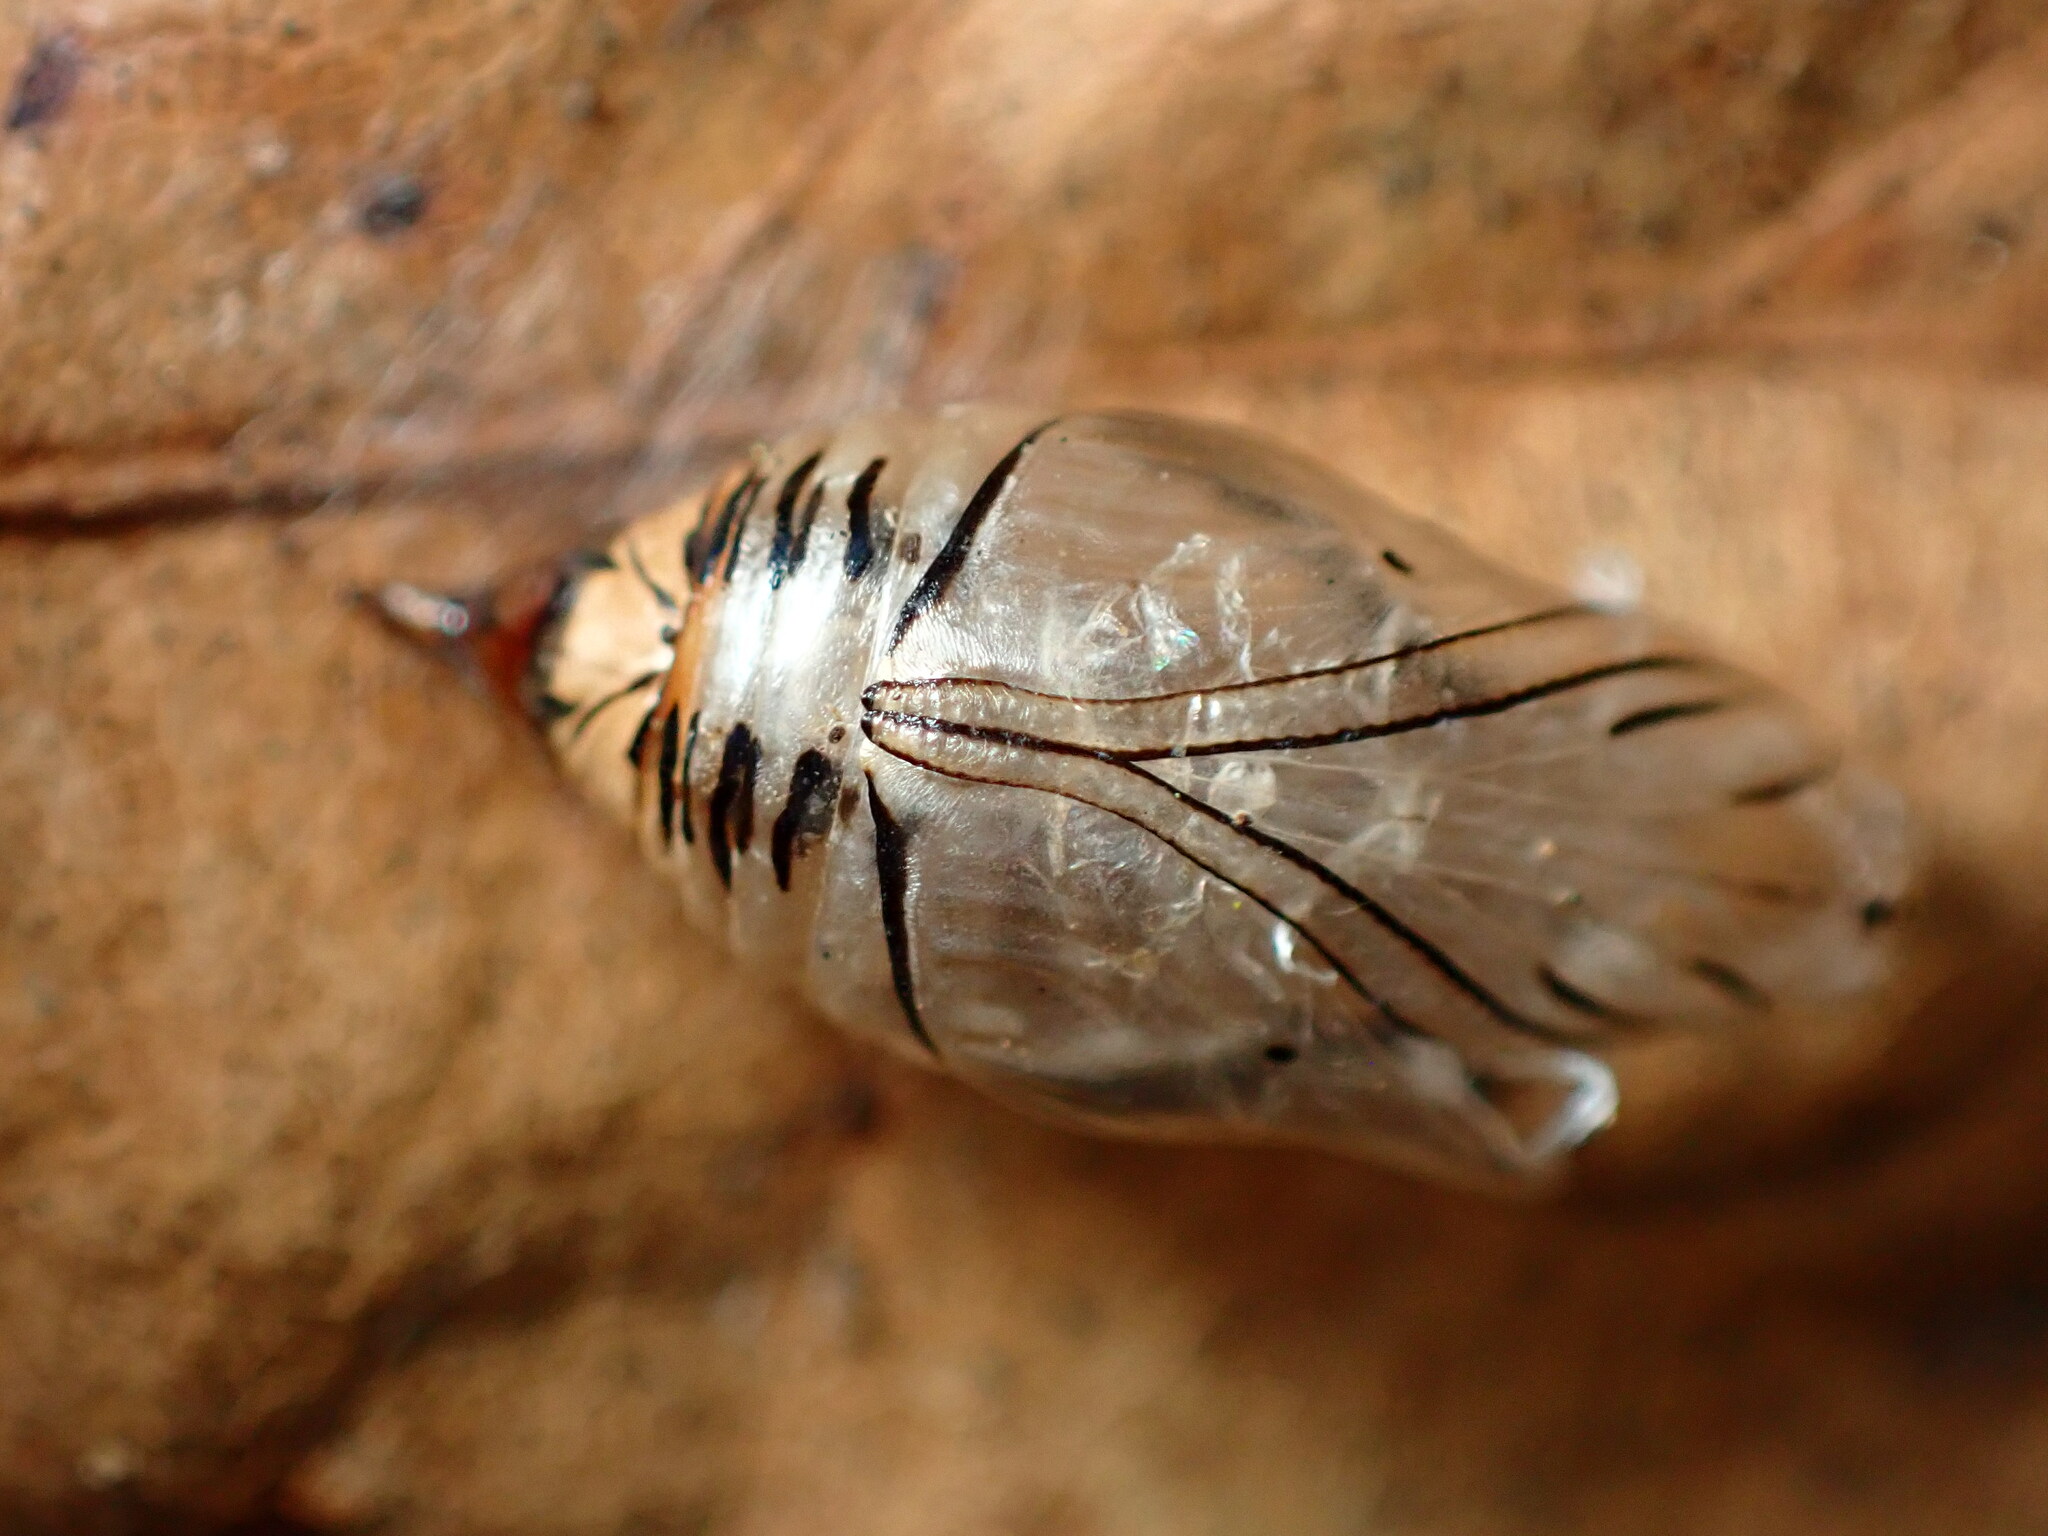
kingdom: Animalia
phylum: Arthropoda
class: Insecta
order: Lepidoptera
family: Notodontidae
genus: Phryganidia
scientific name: Phryganidia californica
